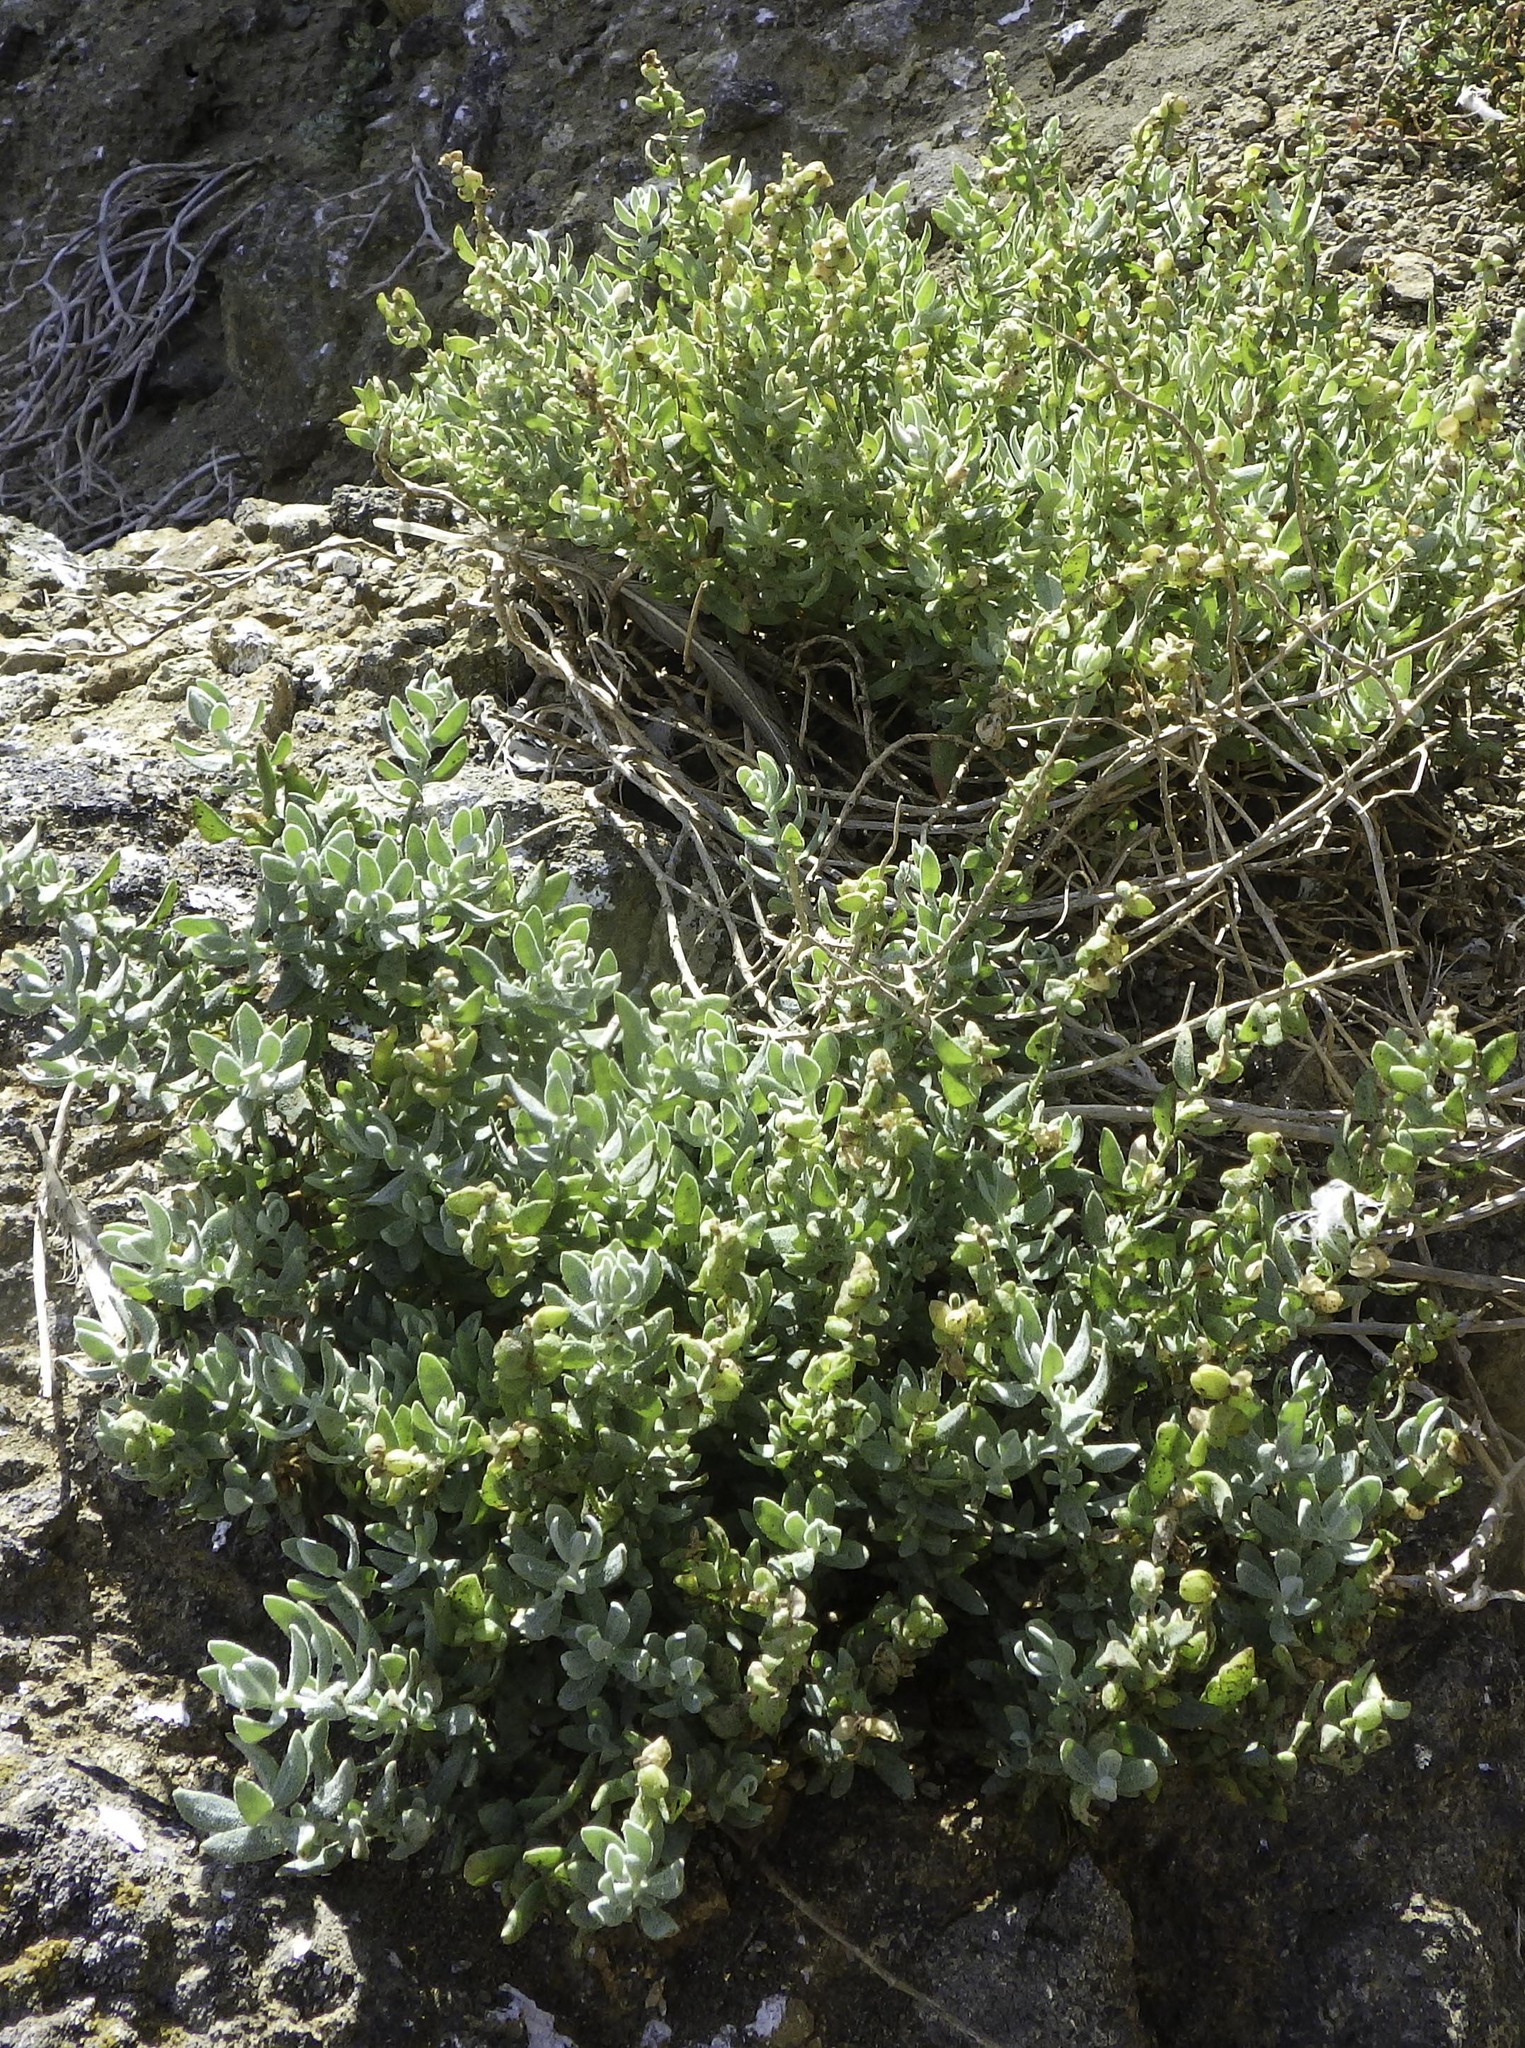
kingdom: Plantae
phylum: Tracheophyta
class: Magnoliopsida
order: Caryophyllales
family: Amaranthaceae
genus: Extriplex
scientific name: Extriplex californica
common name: California saltbush
